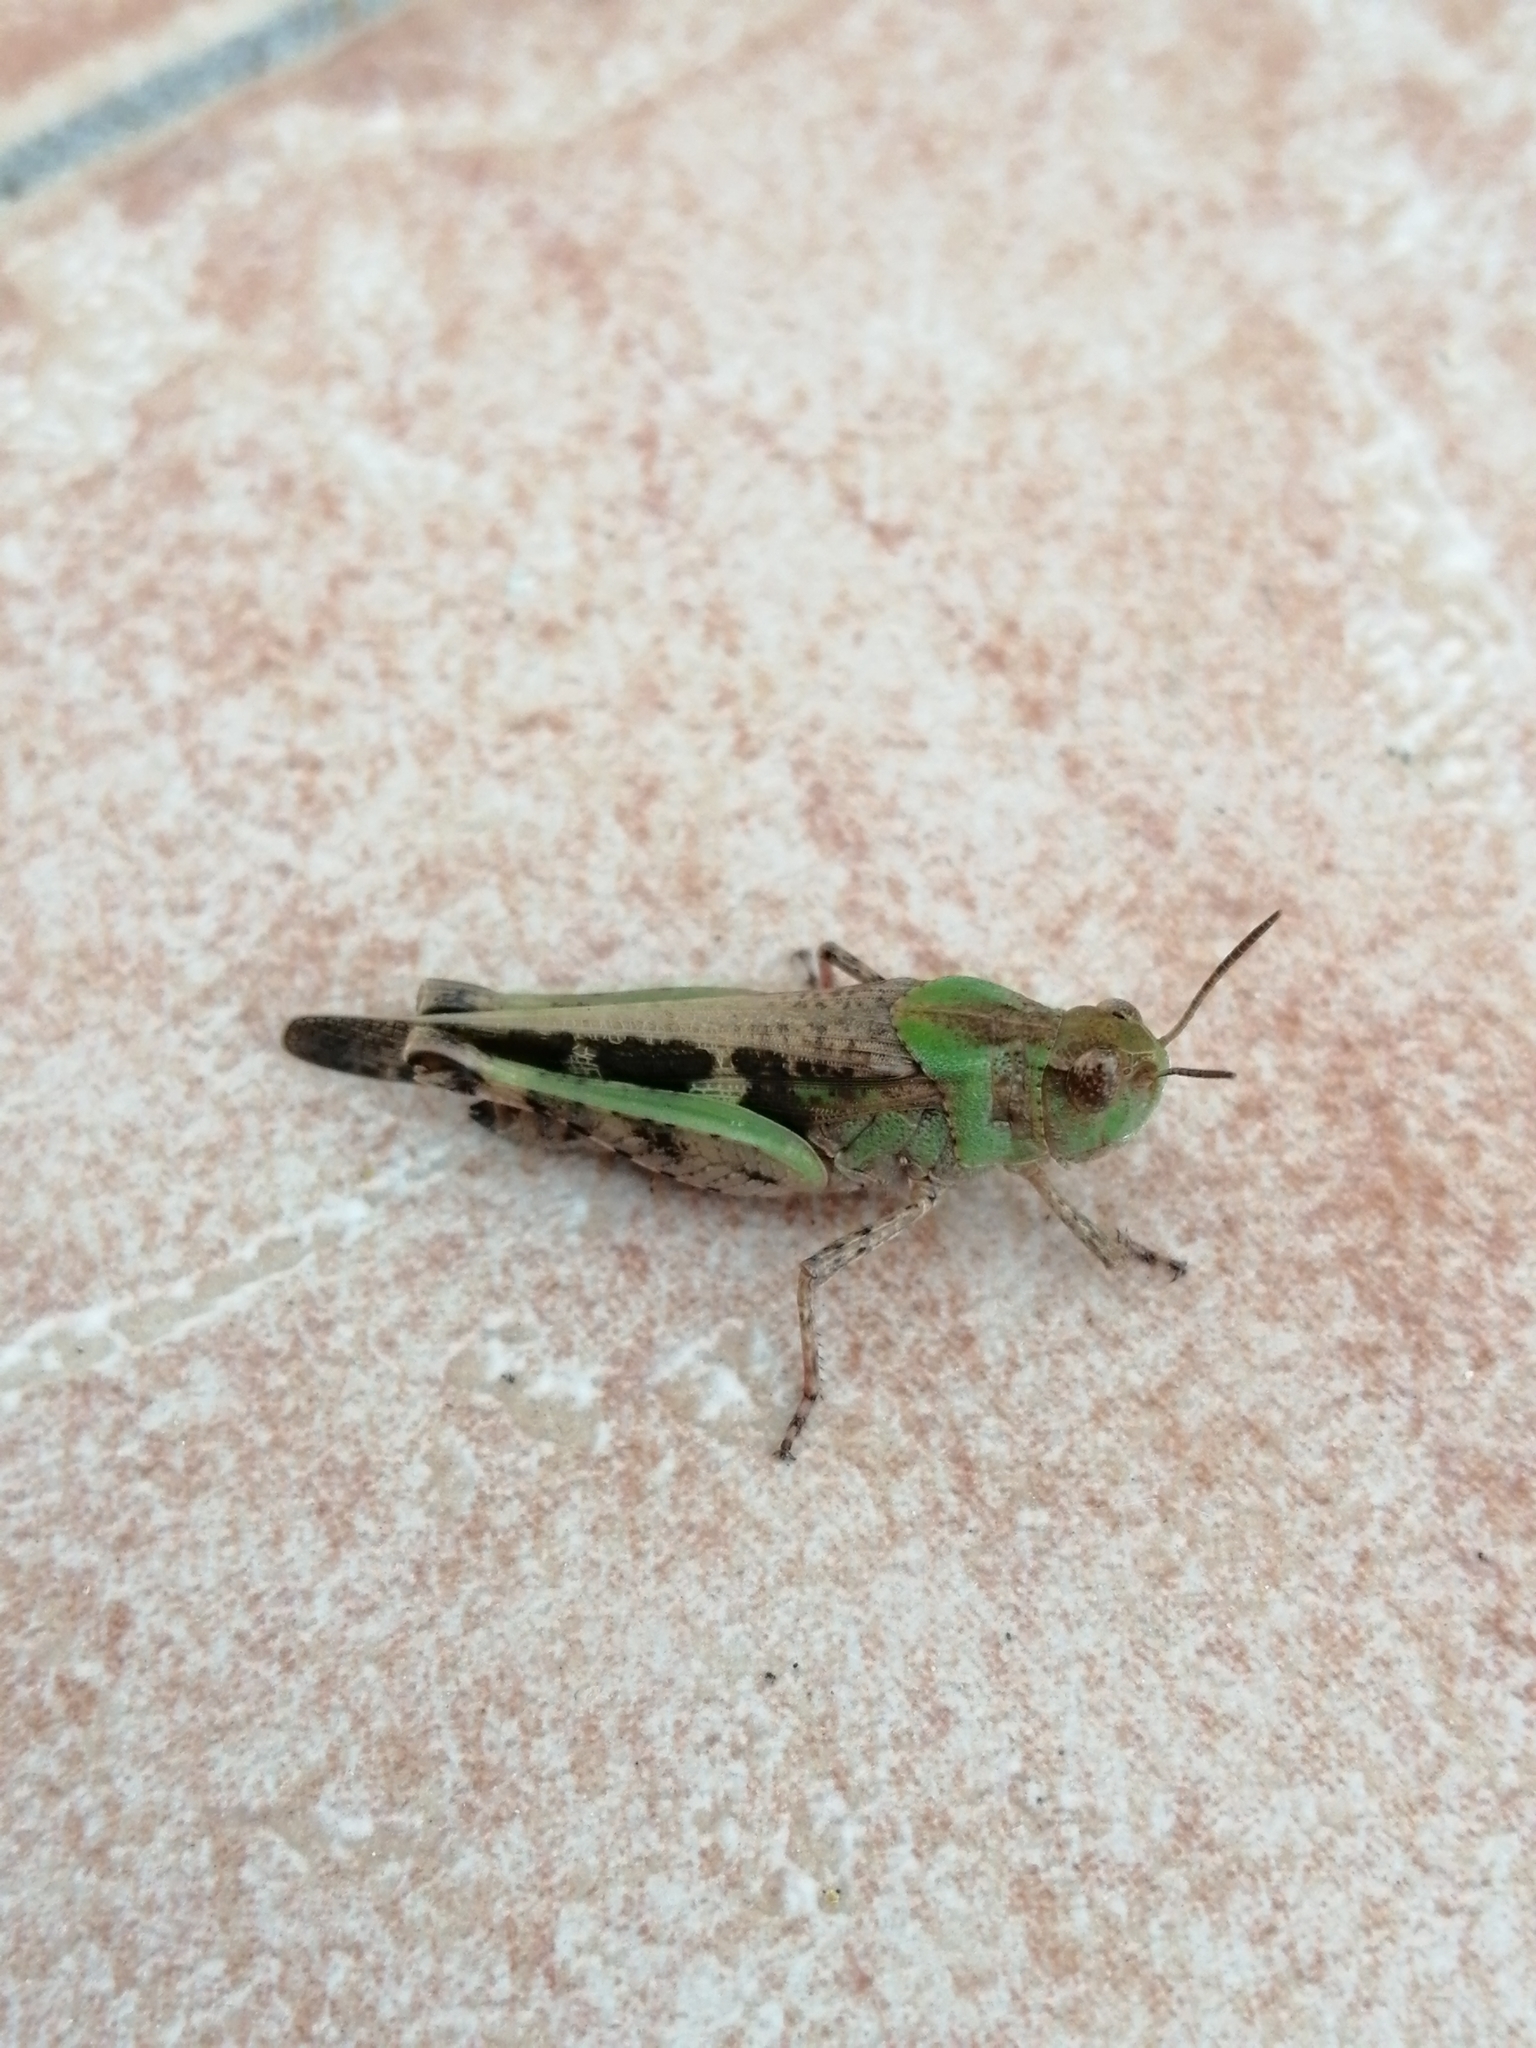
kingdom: Animalia
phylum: Arthropoda
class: Insecta
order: Orthoptera
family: Acrididae
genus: Aiolopus
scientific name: Aiolopus strepens
